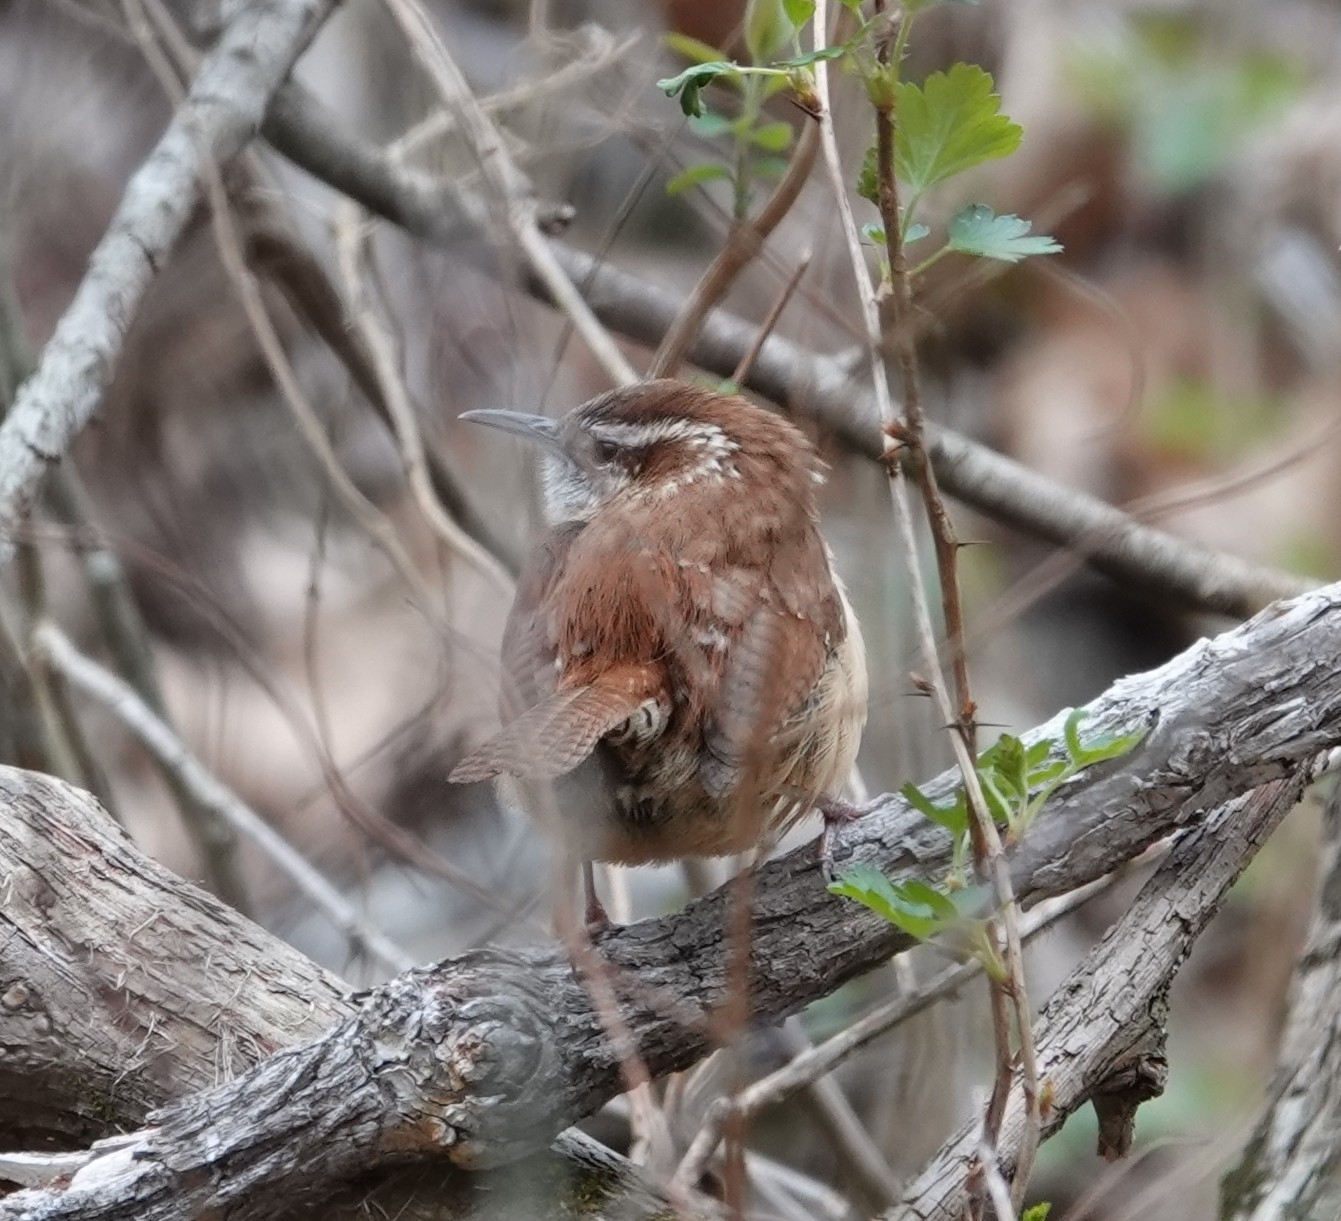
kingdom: Animalia
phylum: Chordata
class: Aves
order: Passeriformes
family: Troglodytidae
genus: Thryothorus
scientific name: Thryothorus ludovicianus
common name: Carolina wren
